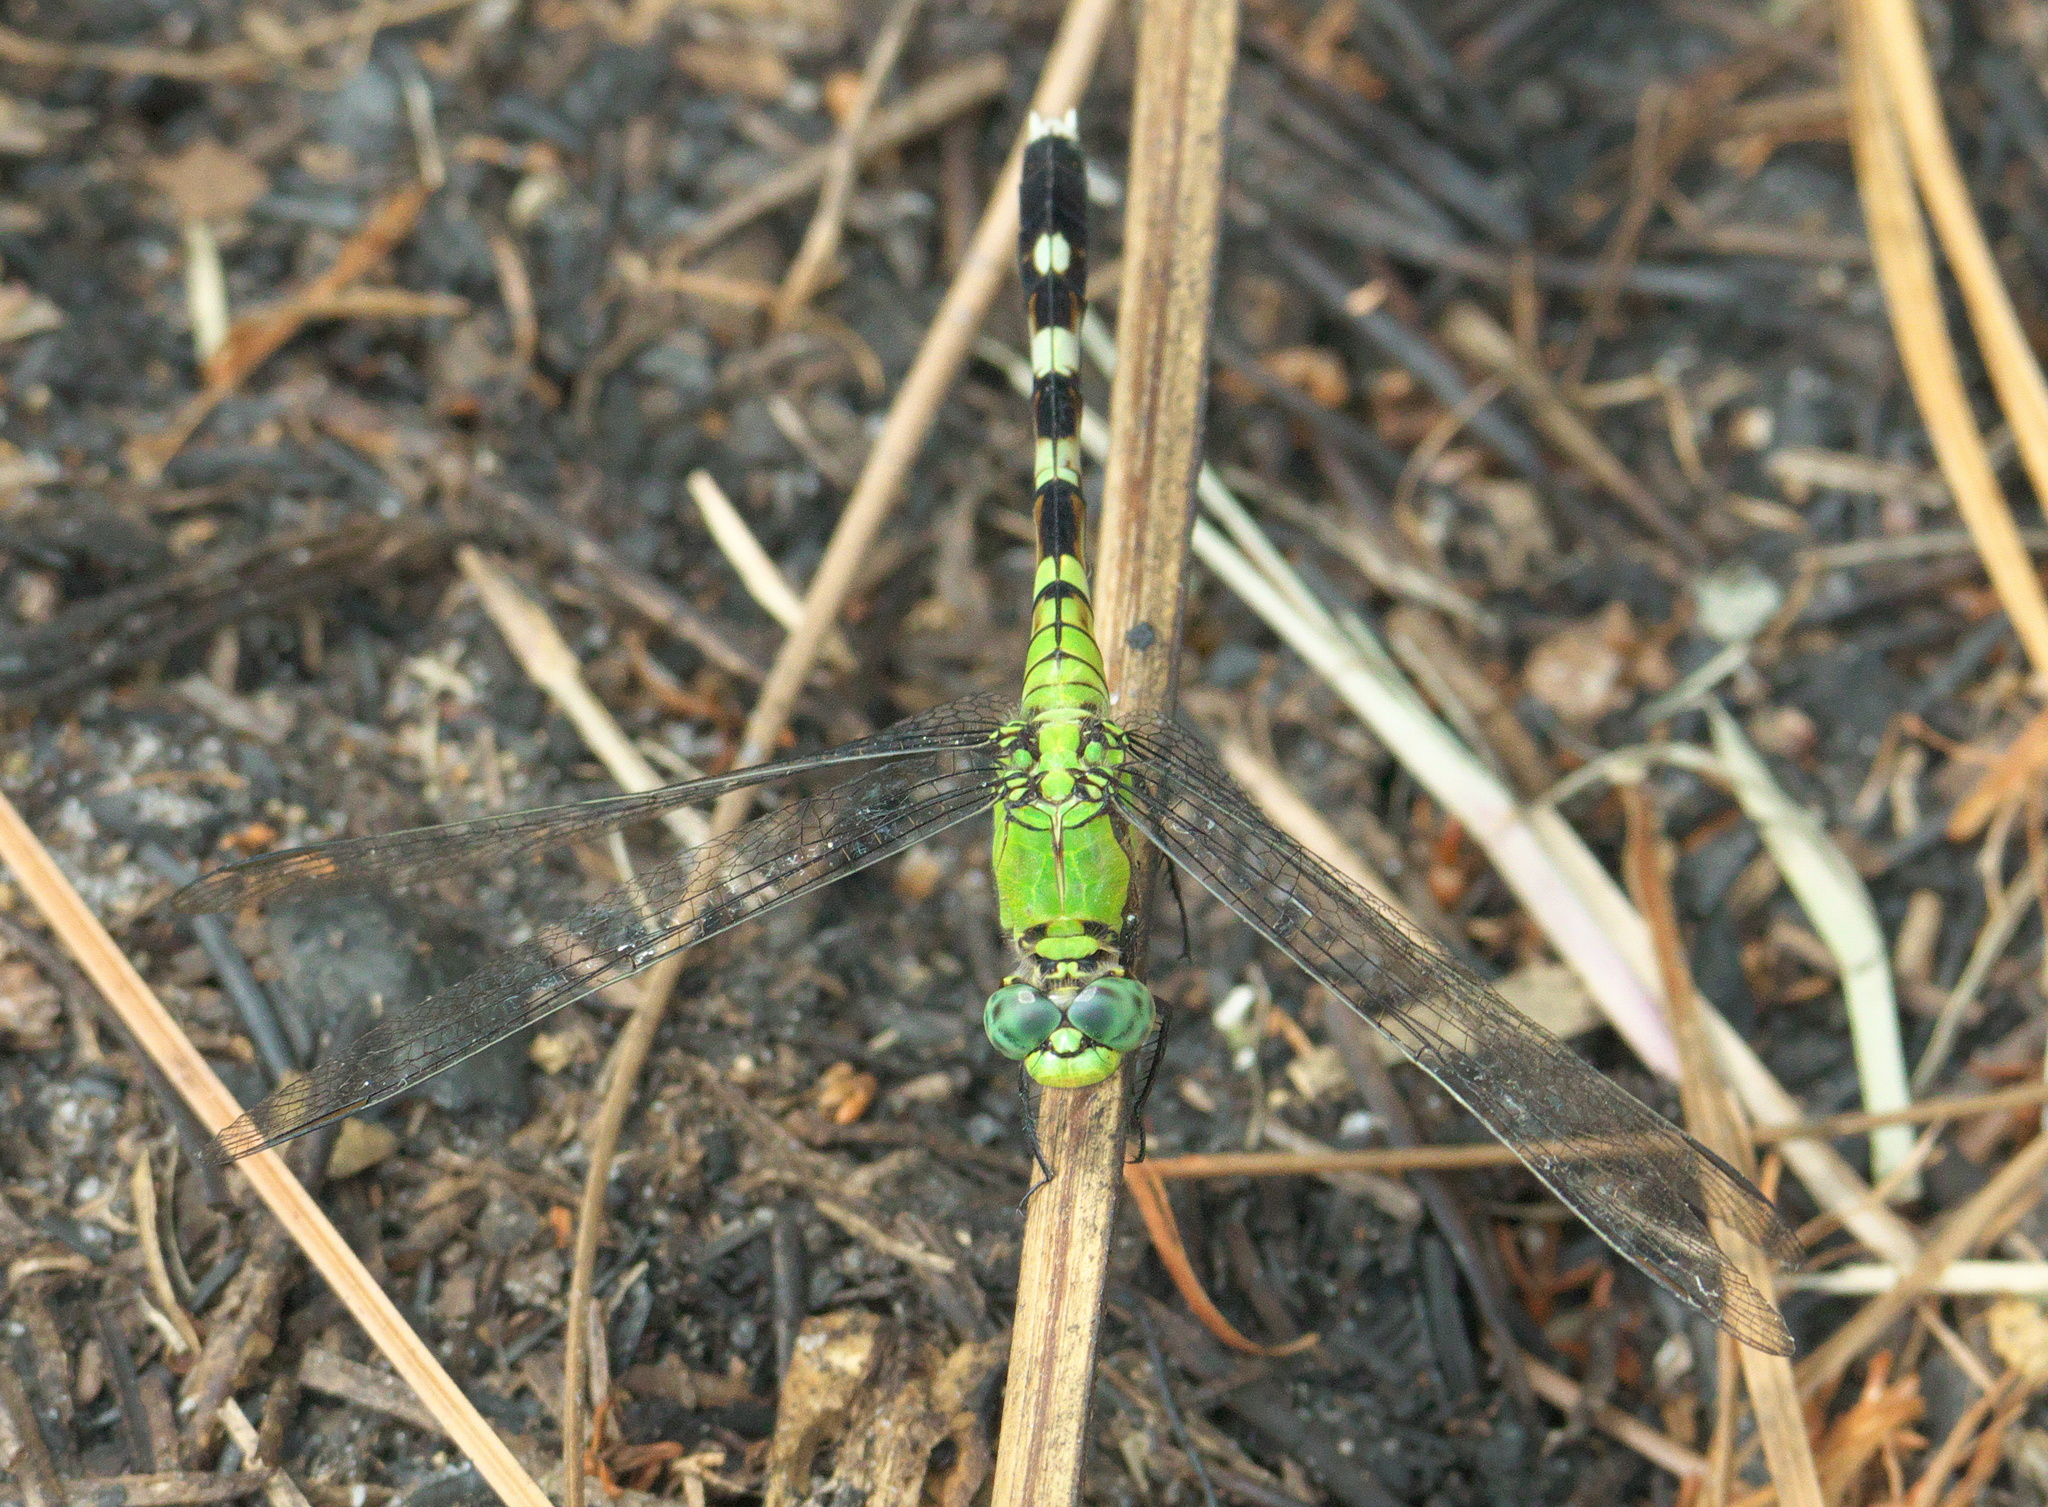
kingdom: Animalia
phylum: Arthropoda
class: Insecta
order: Odonata
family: Libellulidae
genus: Erythemis
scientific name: Erythemis simplicicollis
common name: Eastern pondhawk
